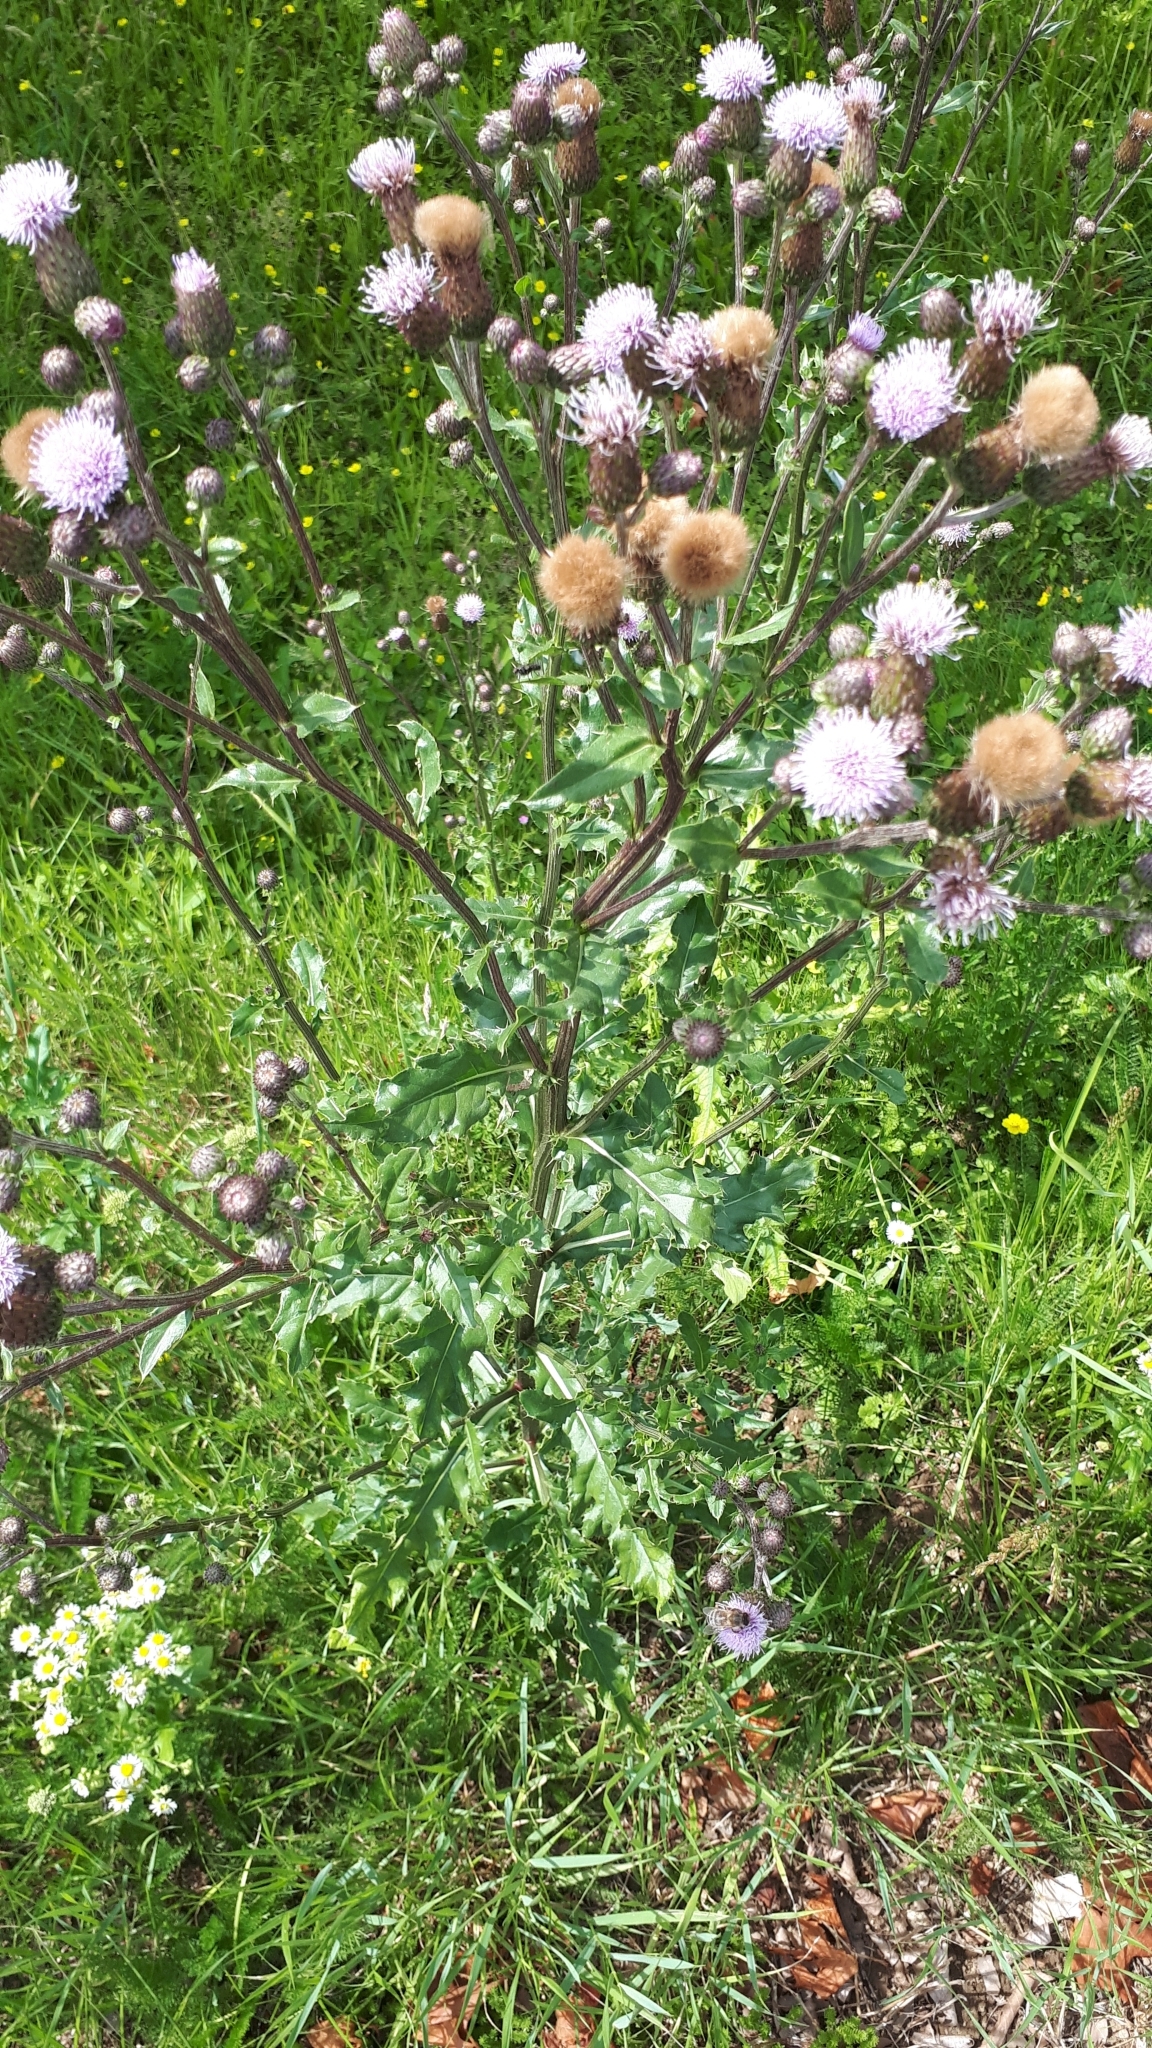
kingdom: Plantae
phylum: Tracheophyta
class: Magnoliopsida
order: Asterales
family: Asteraceae
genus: Cirsium
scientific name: Cirsium arvense
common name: Creeping thistle
